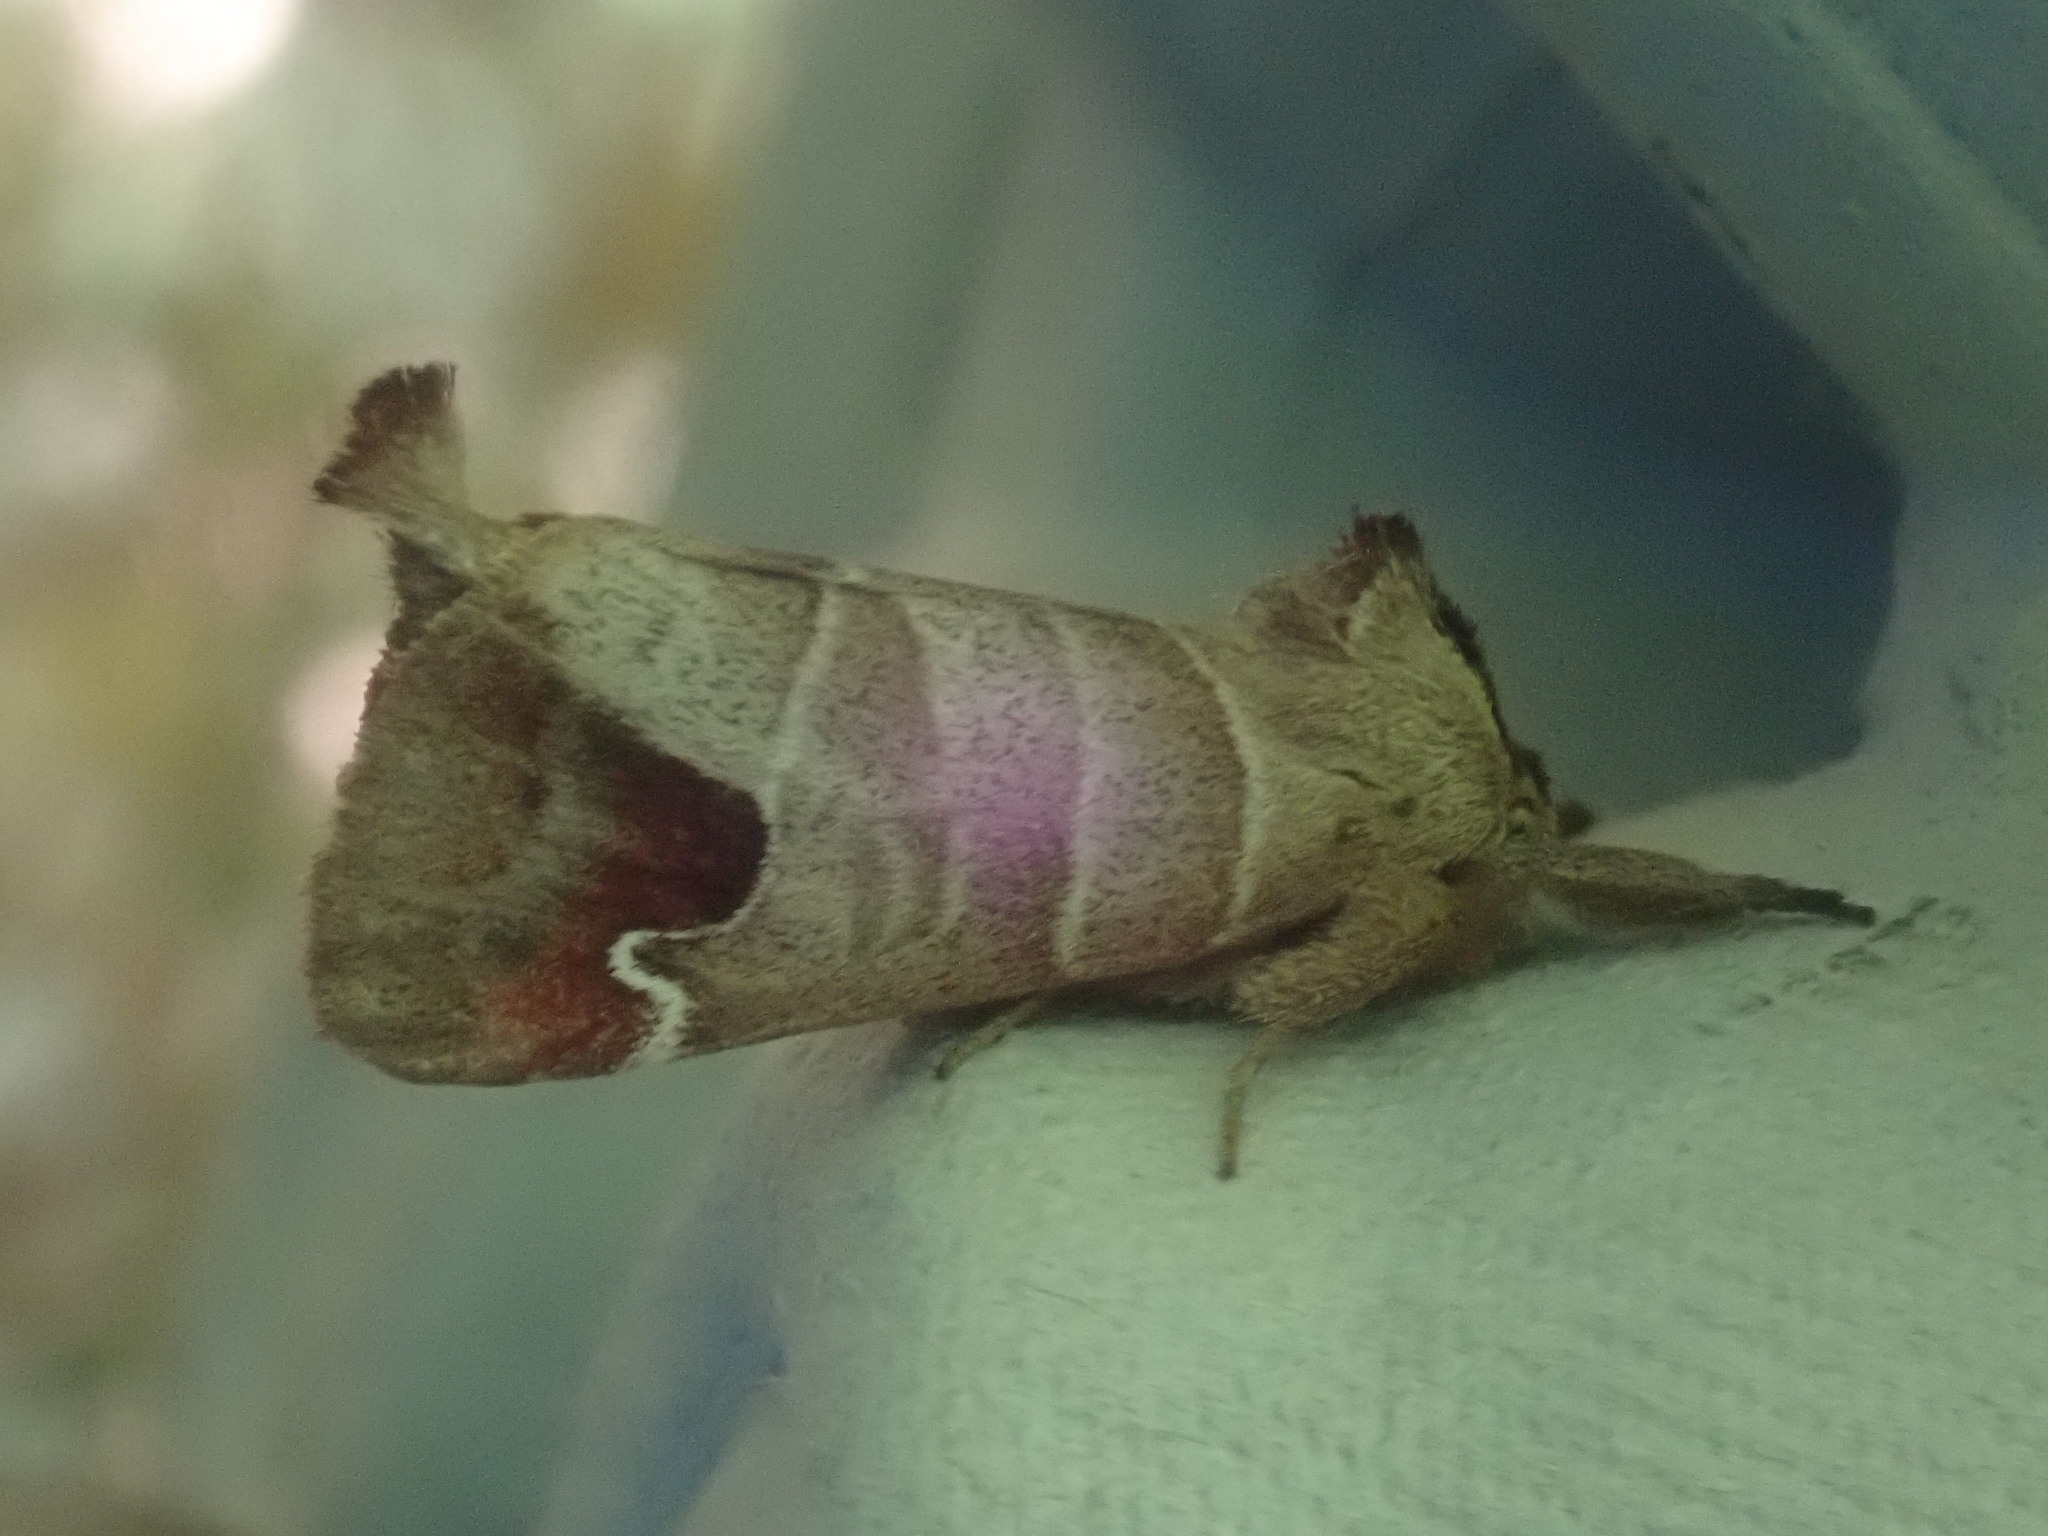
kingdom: Animalia
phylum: Arthropoda
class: Insecta
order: Lepidoptera
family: Notodontidae
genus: Clostera
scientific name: Clostera albosigma
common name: Sigmoid prominent
